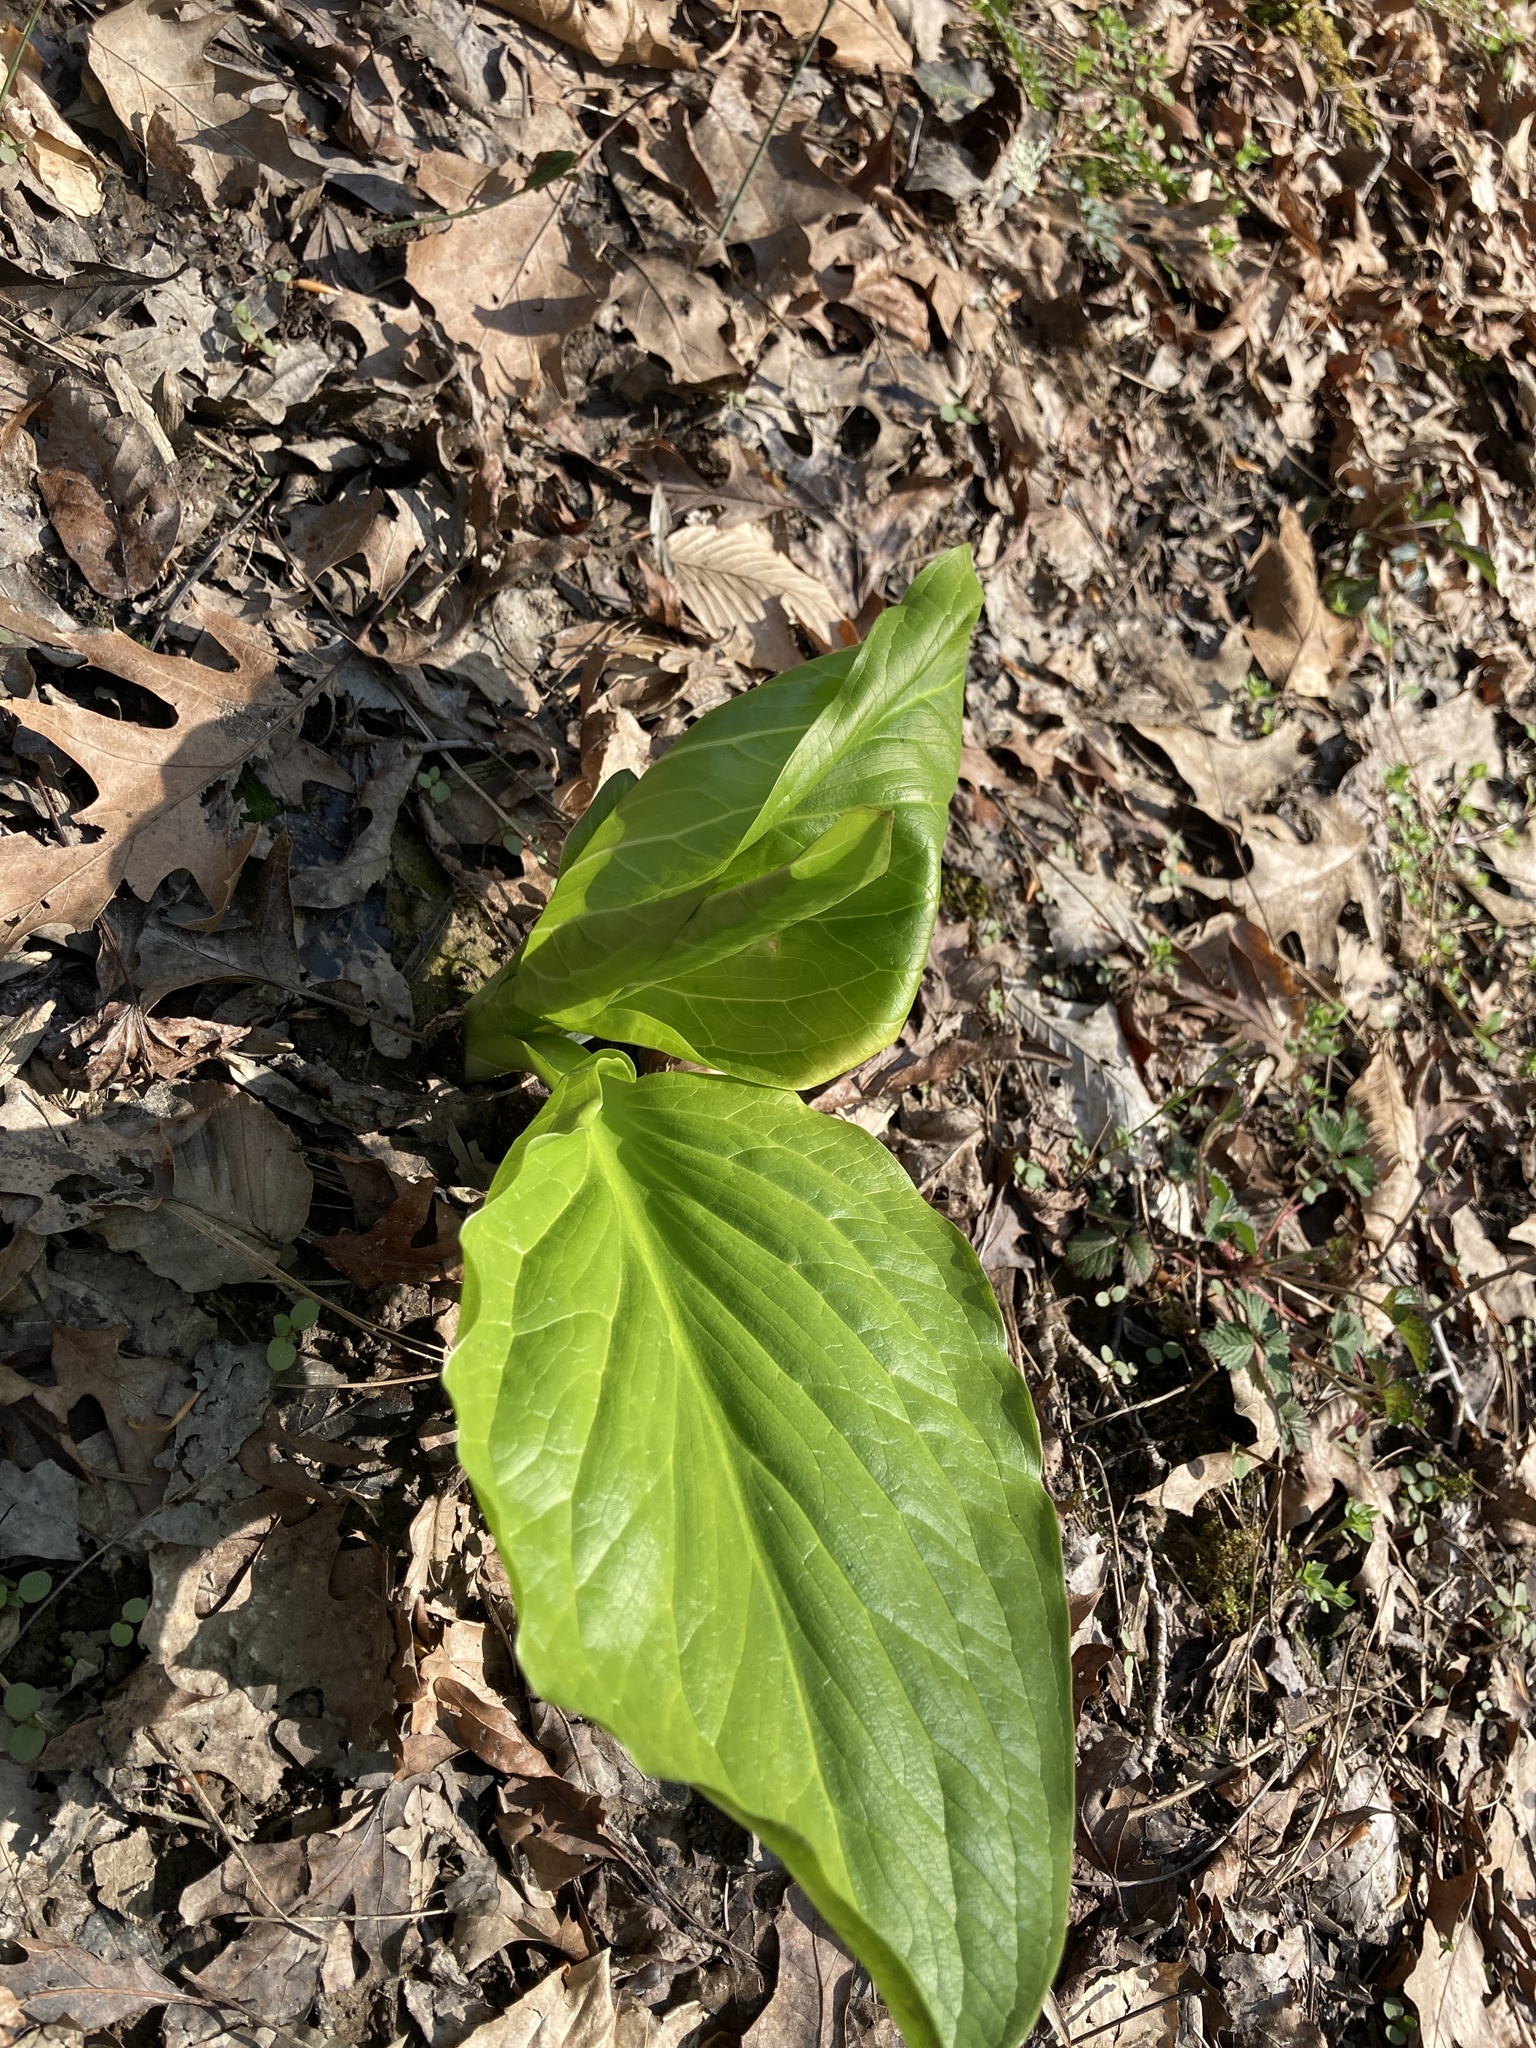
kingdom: Plantae
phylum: Tracheophyta
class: Liliopsida
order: Alismatales
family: Araceae
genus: Symplocarpus
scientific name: Symplocarpus foetidus
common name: Eastern skunk cabbage
